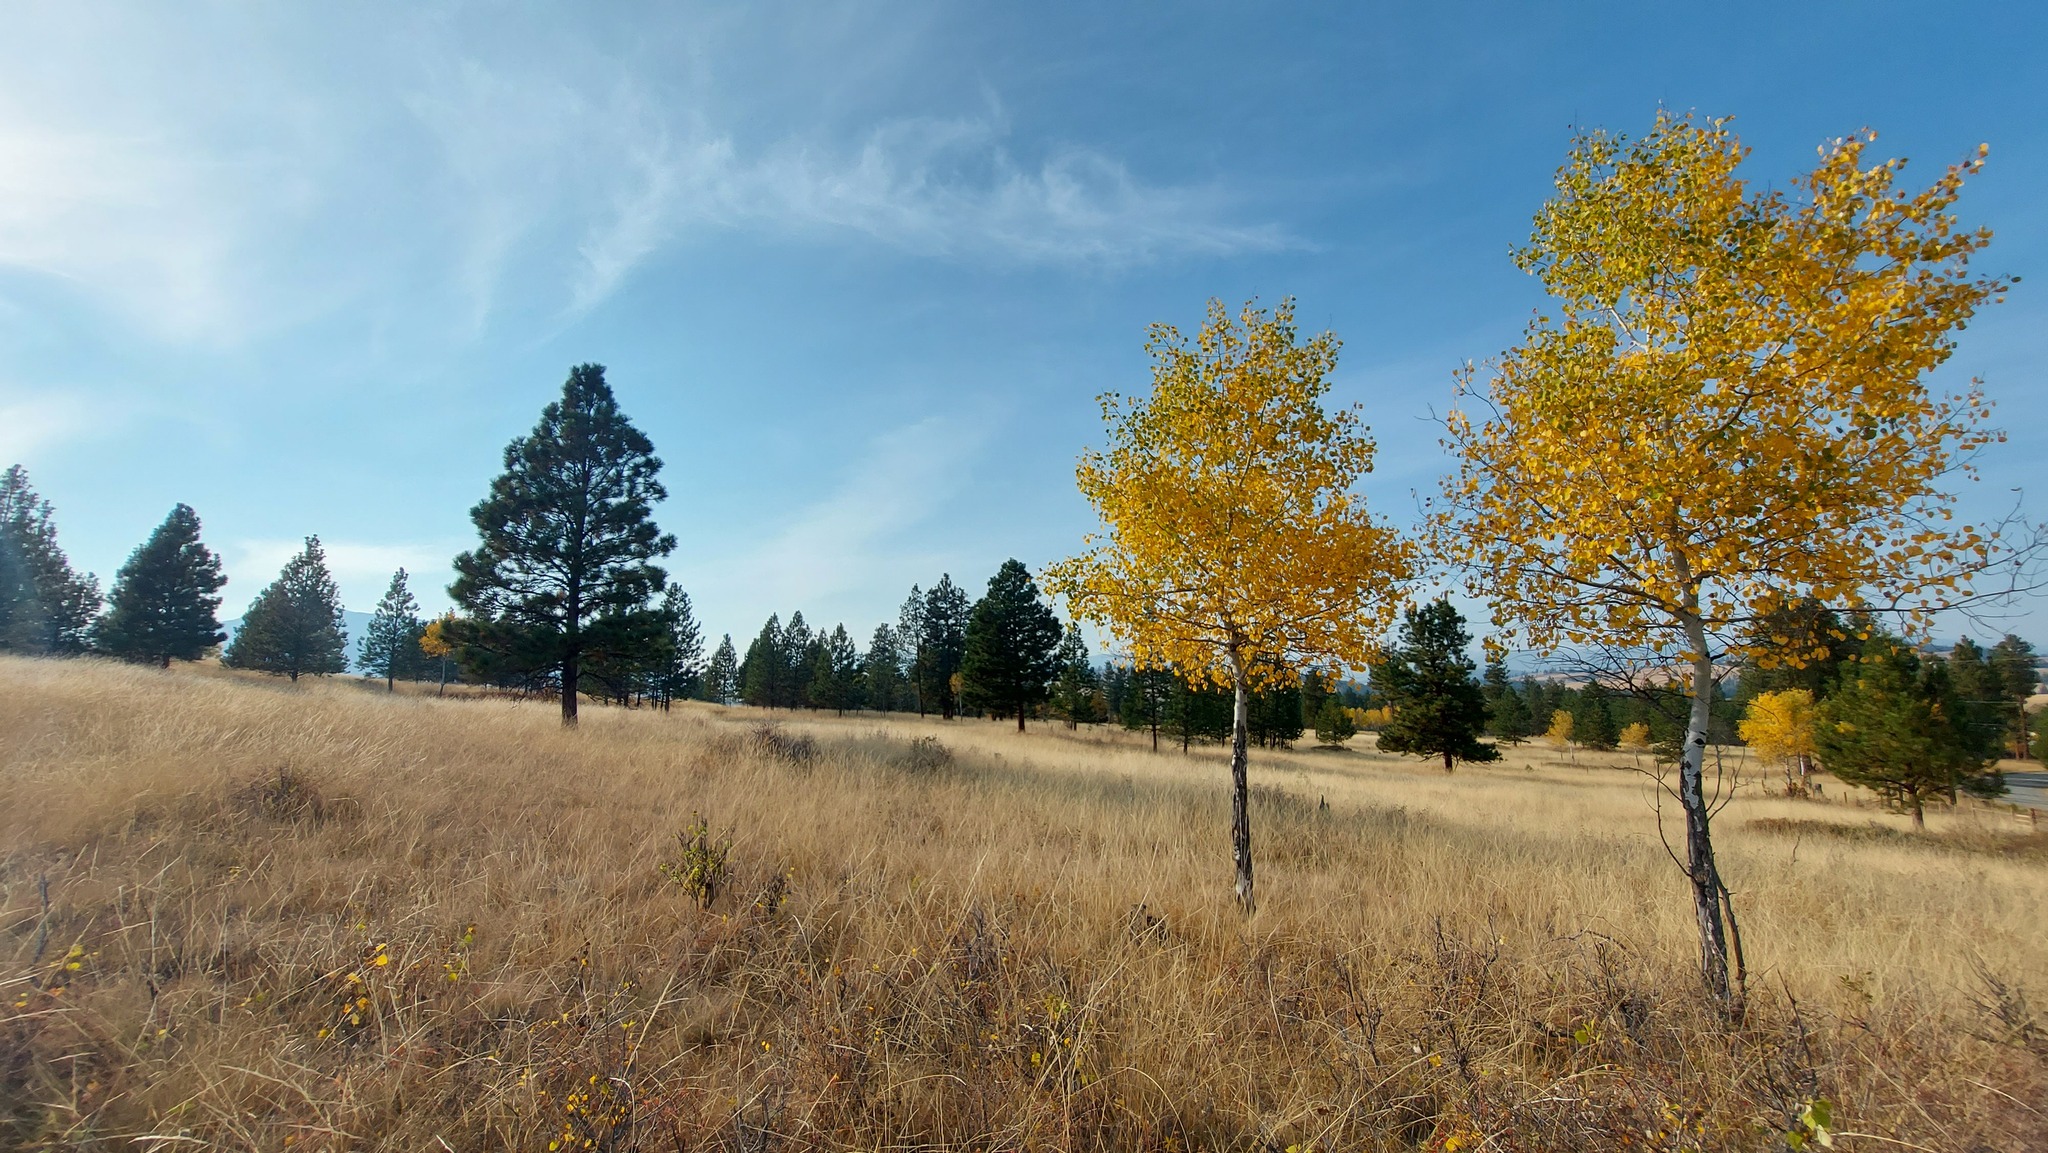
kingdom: Plantae
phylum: Tracheophyta
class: Magnoliopsida
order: Malpighiales
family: Salicaceae
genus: Populus
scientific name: Populus tremuloides
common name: Quaking aspen
